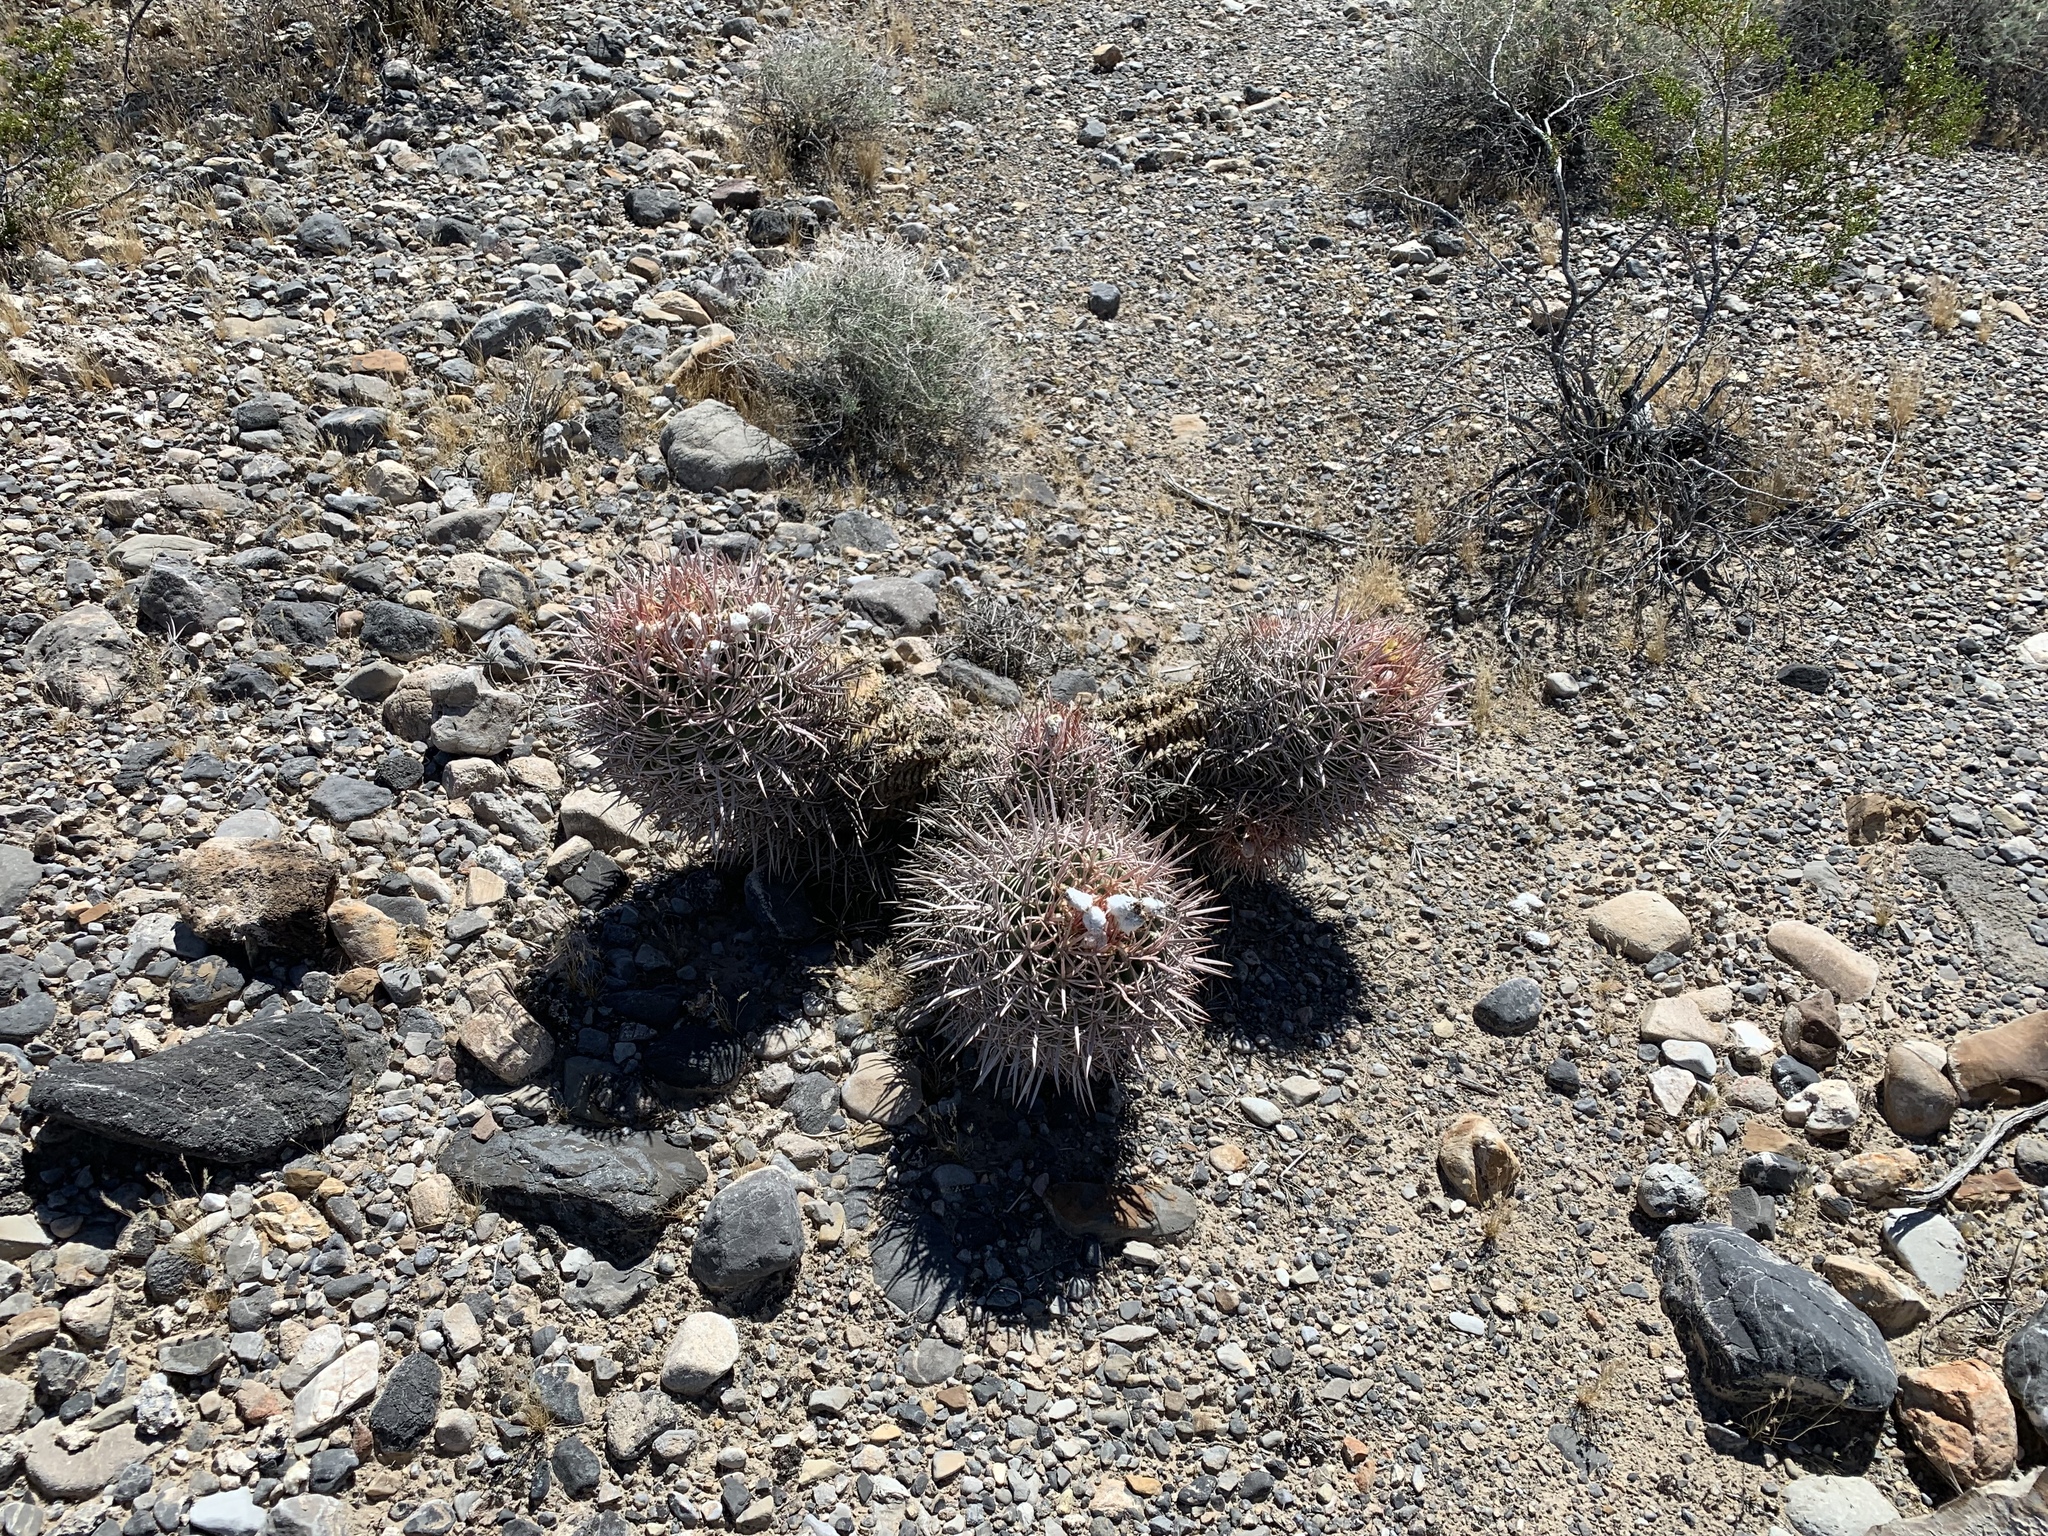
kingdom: Plantae
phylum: Tracheophyta
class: Magnoliopsida
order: Caryophyllales
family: Cactaceae
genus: Echinocactus
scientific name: Echinocactus polycephalus
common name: Cottontop cactus
